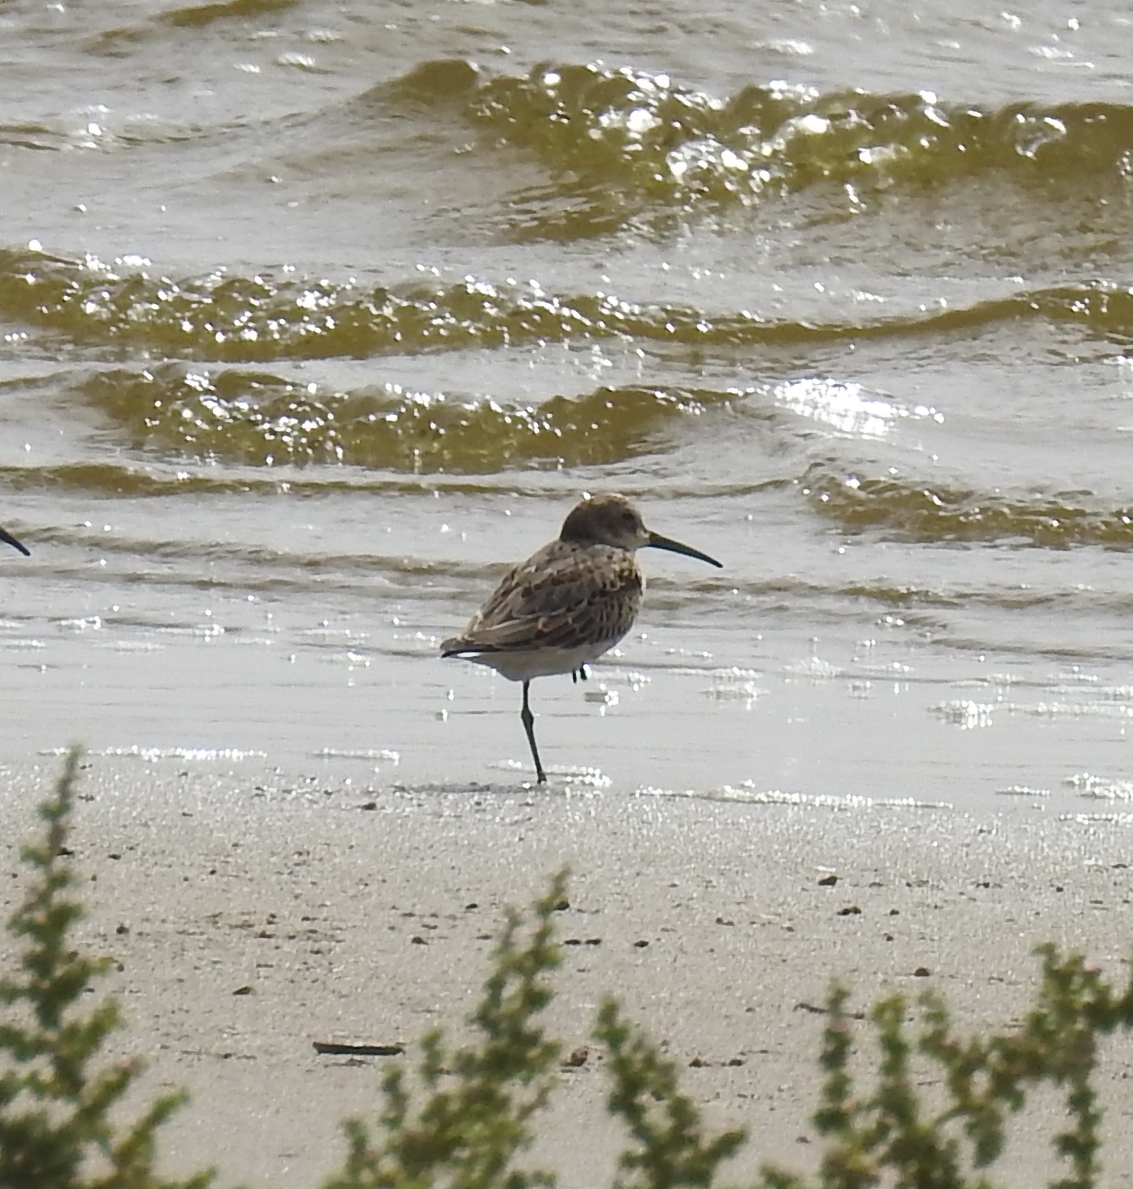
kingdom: Animalia
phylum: Chordata
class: Aves
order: Charadriiformes
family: Scolopacidae
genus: Calidris
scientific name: Calidris alpina
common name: Dunlin
